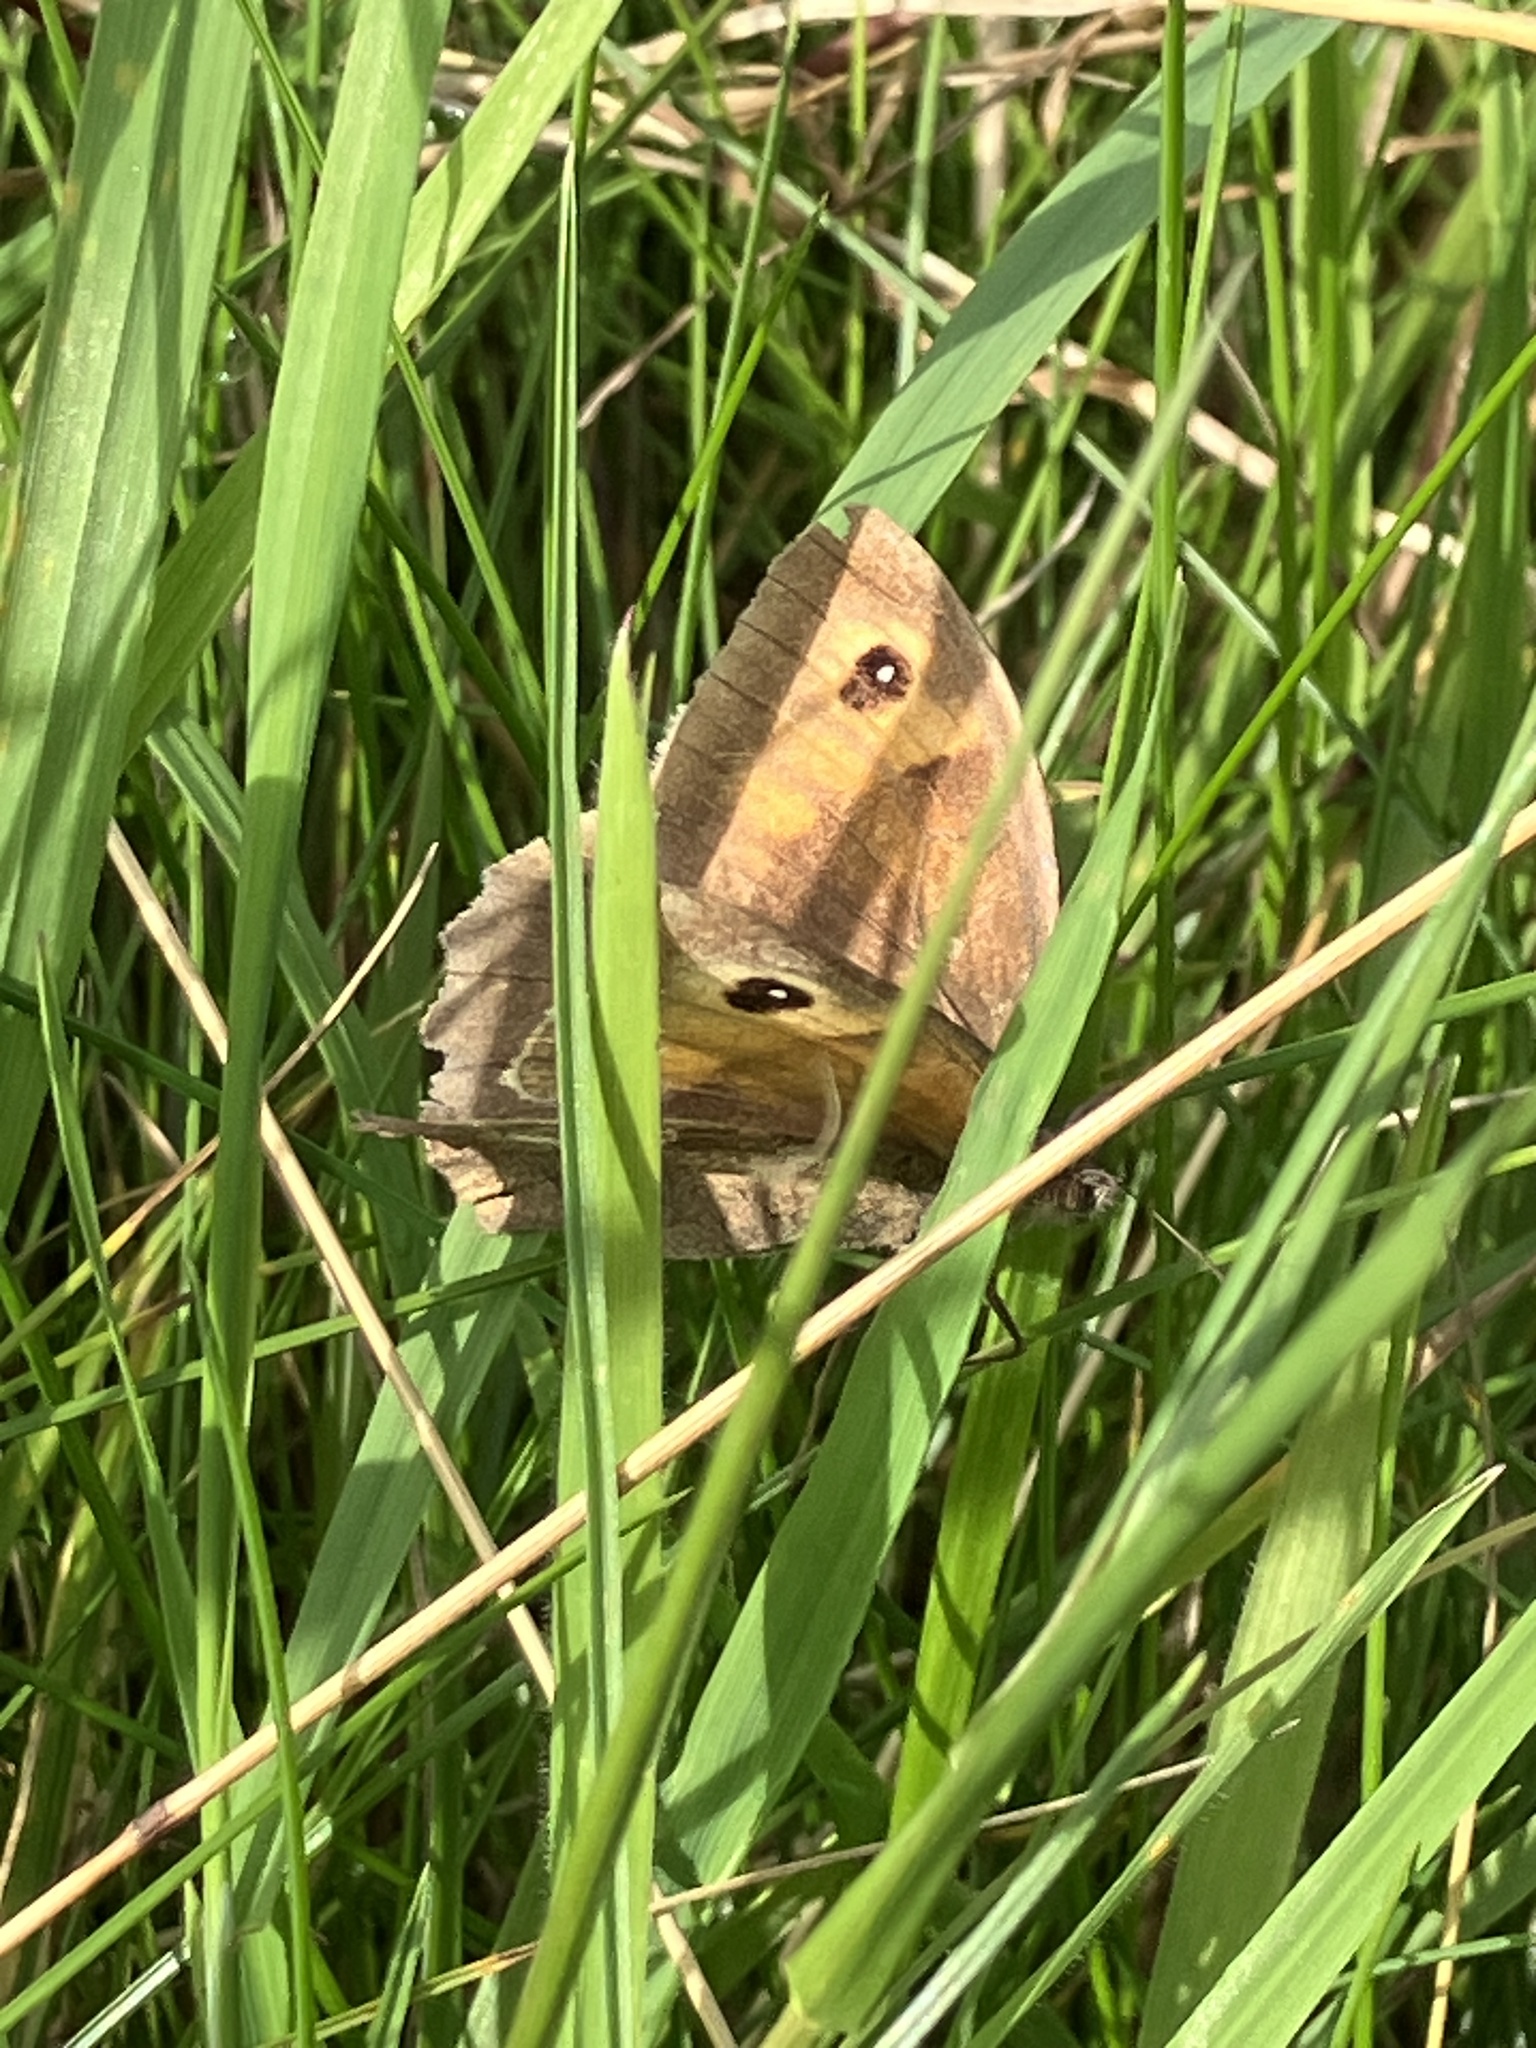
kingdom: Animalia
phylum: Arthropoda
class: Insecta
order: Lepidoptera
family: Nymphalidae
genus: Maniola
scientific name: Maniola jurtina
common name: Meadow brown
